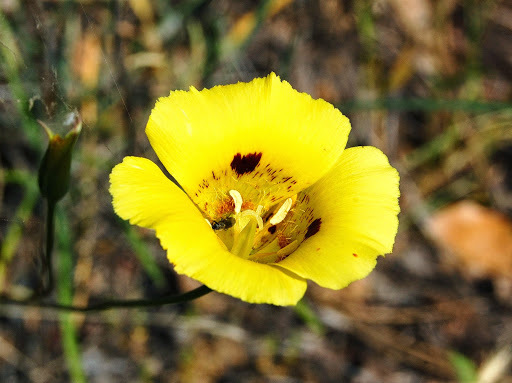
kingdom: Plantae
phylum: Tracheophyta
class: Liliopsida
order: Liliales
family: Liliaceae
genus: Calochortus
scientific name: Calochortus luteus
